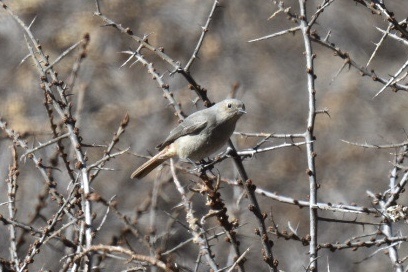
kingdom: Animalia
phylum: Chordata
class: Aves
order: Passeriformes
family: Muscicapidae
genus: Phoenicurus
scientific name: Phoenicurus ochruros
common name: Black redstart
